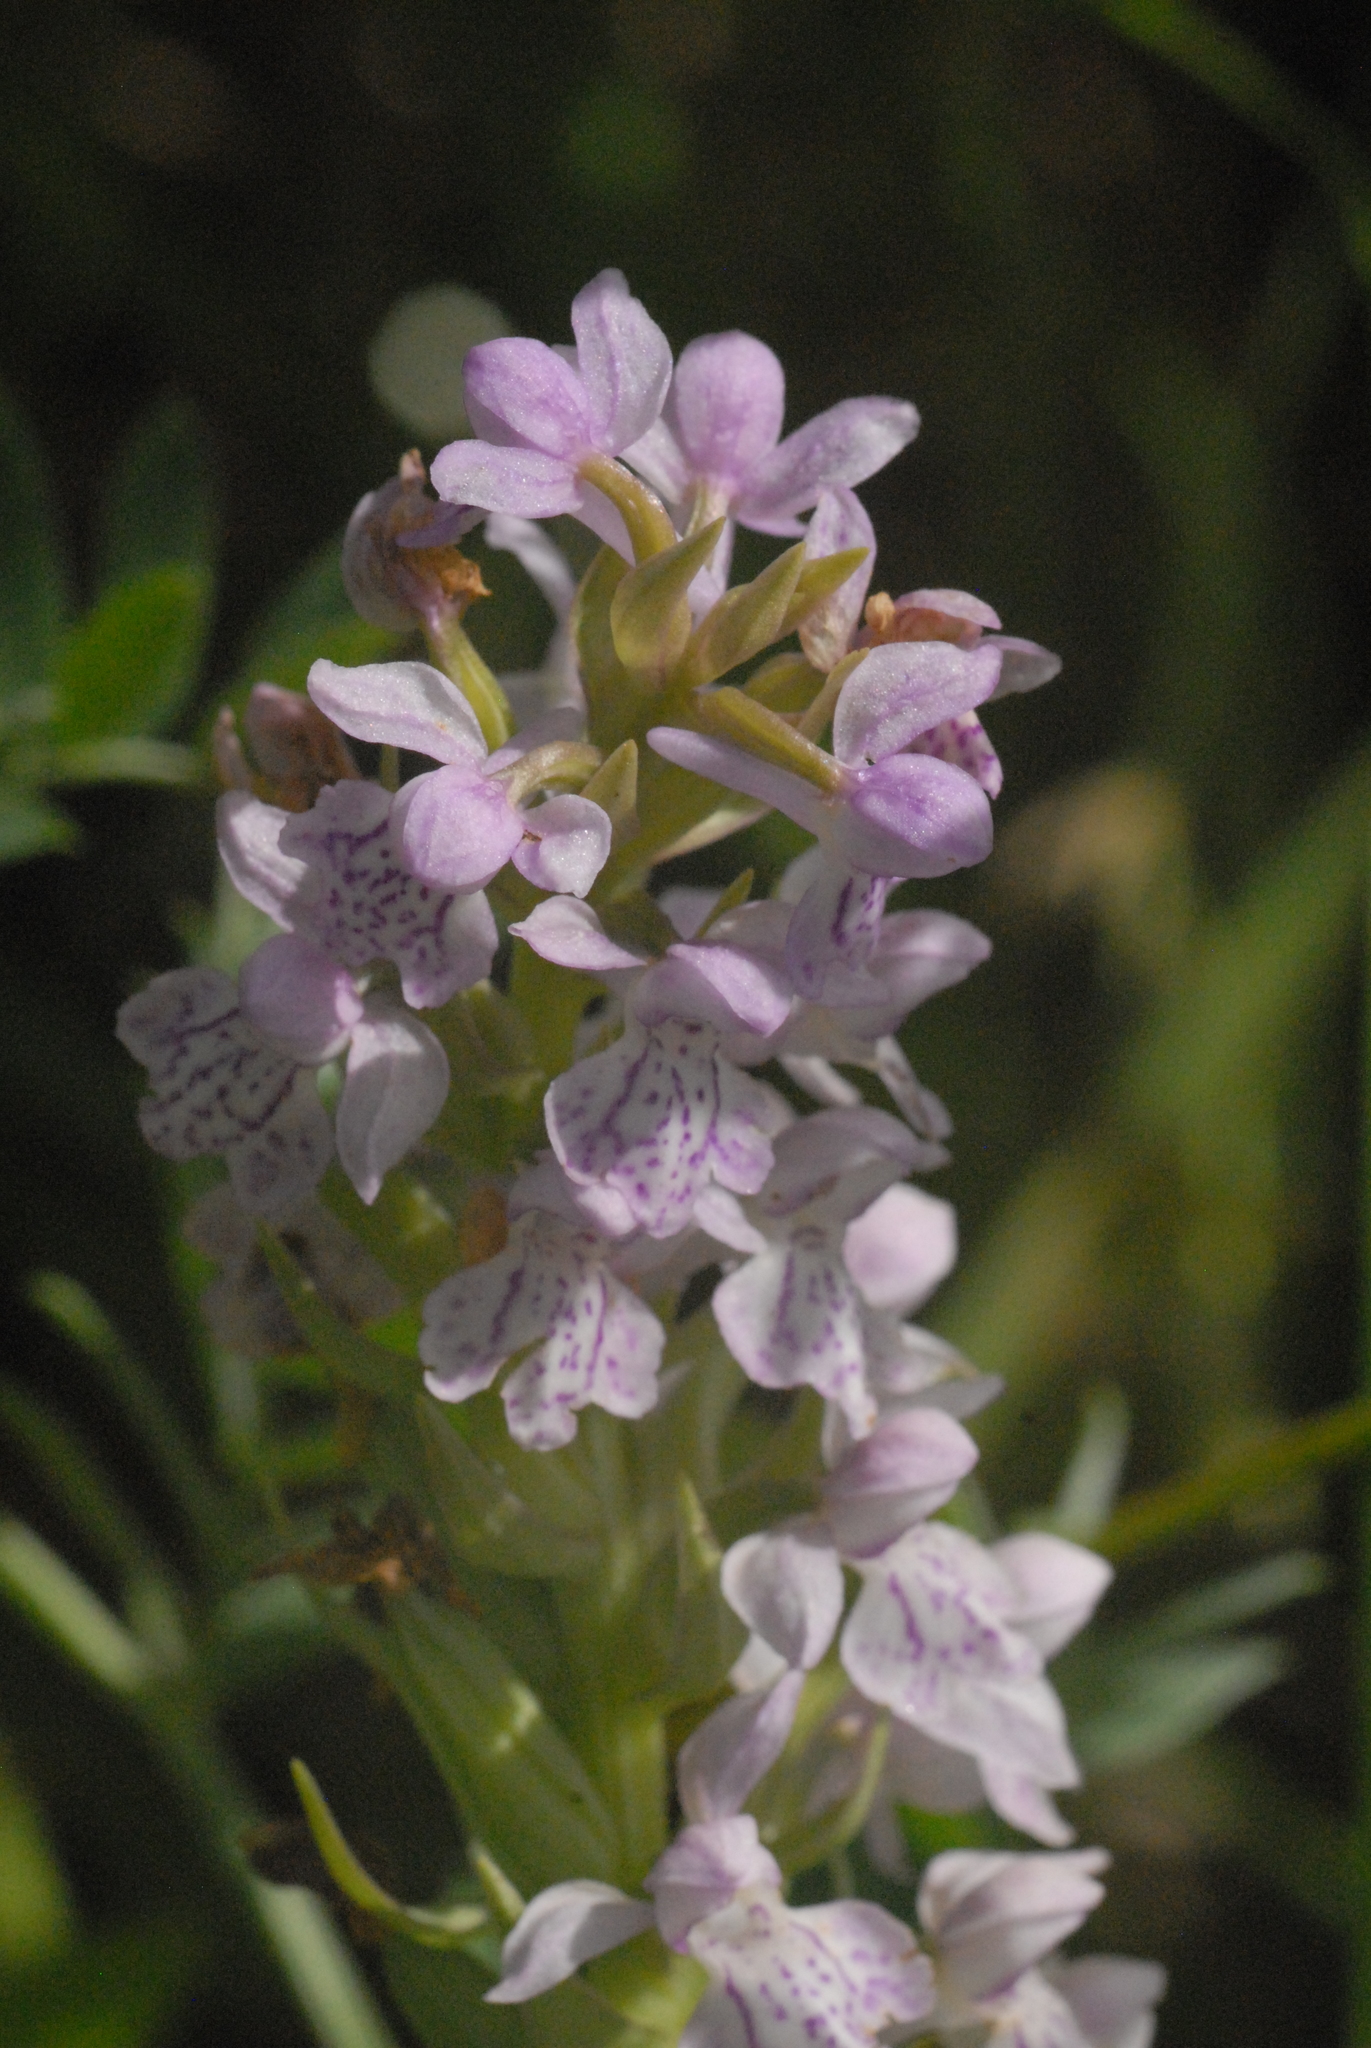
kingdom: Plantae
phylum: Tracheophyta
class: Liliopsida
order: Asparagales
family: Orchidaceae
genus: Dactylorhiza
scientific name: Dactylorhiza majalis
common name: Marsh orchid
